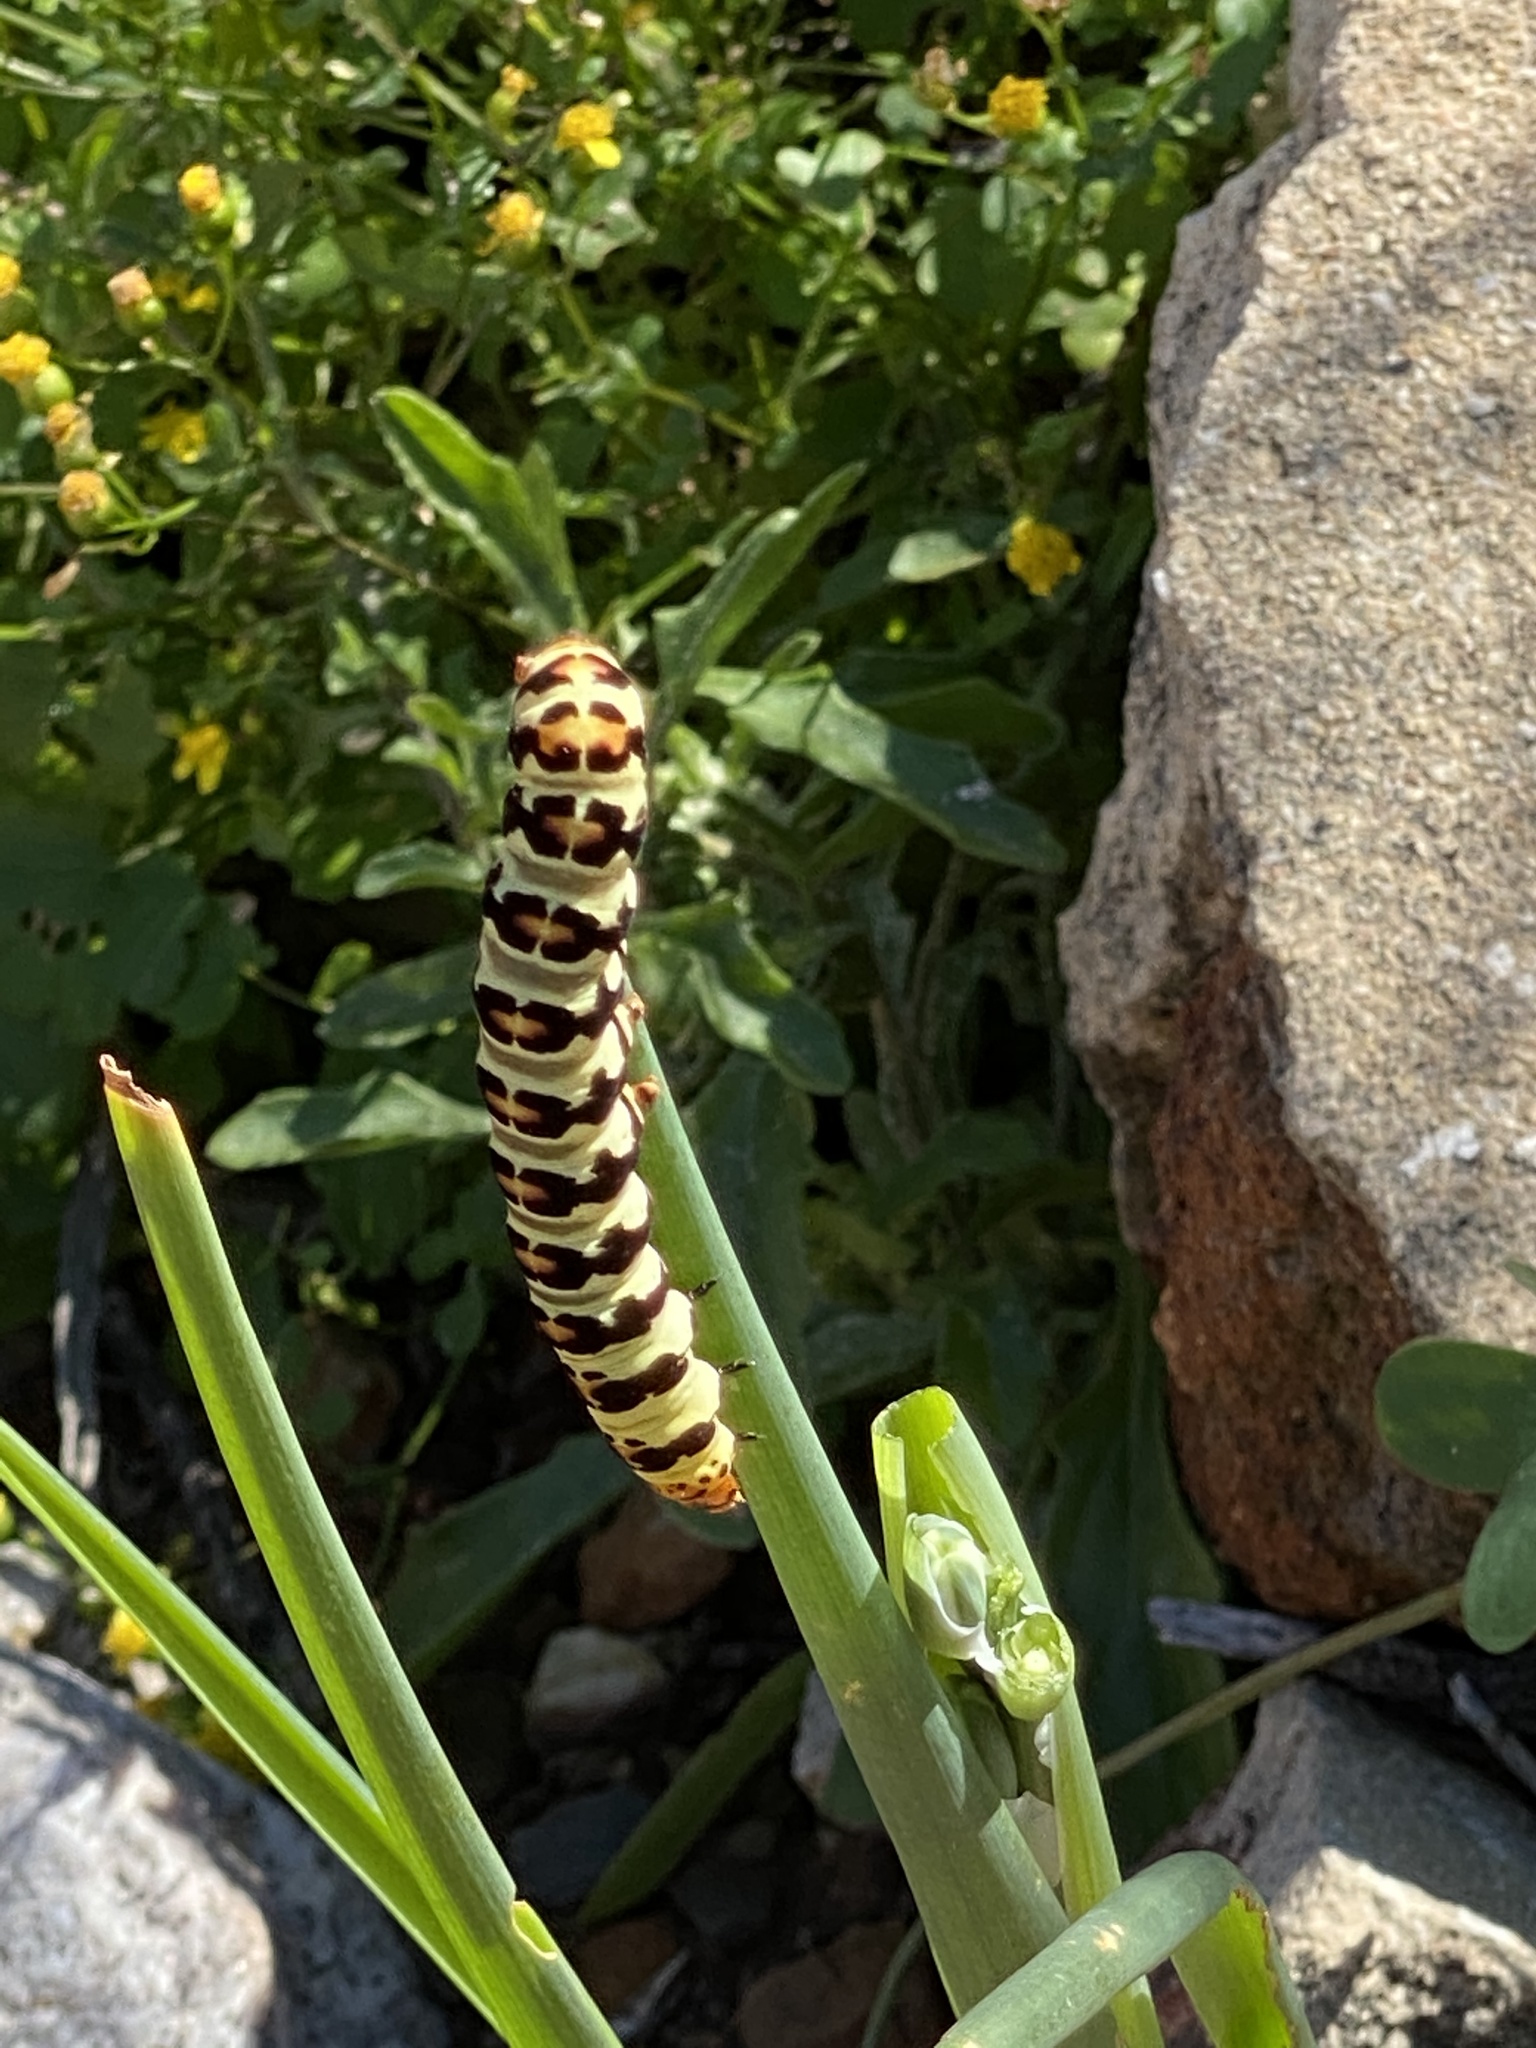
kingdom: Animalia
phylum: Arthropoda
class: Insecta
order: Lepidoptera
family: Noctuidae
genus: Diaphone
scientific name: Diaphone eumela
